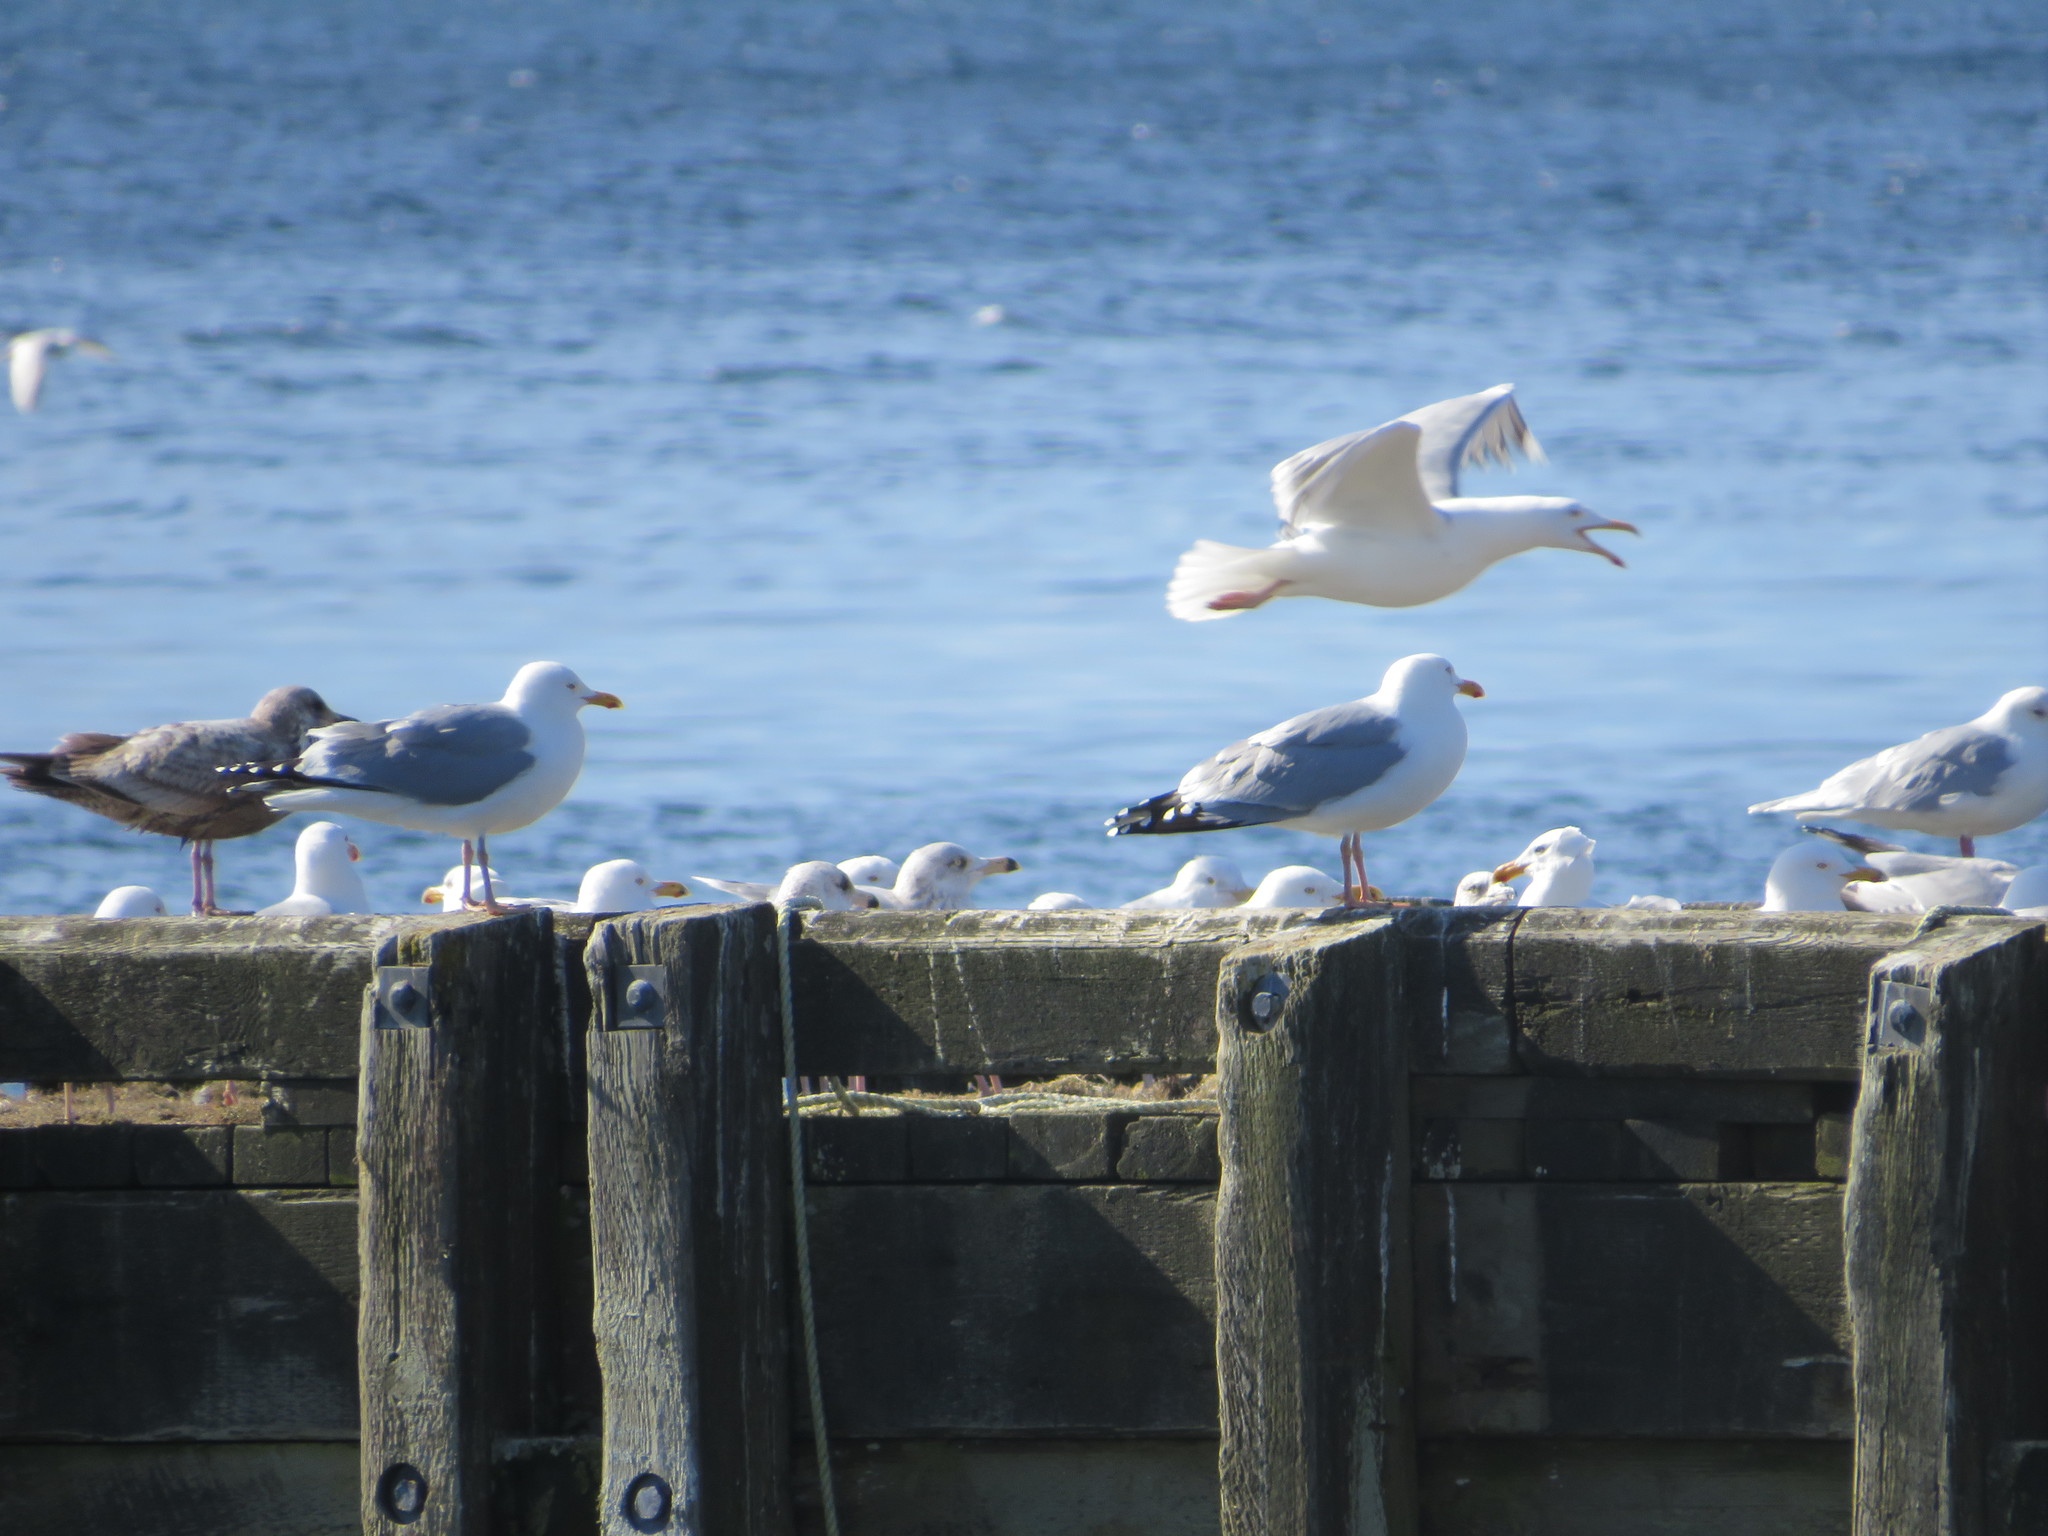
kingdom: Animalia
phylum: Chordata
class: Aves
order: Charadriiformes
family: Laridae
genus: Larus
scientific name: Larus glaucoides
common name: Iceland gull
